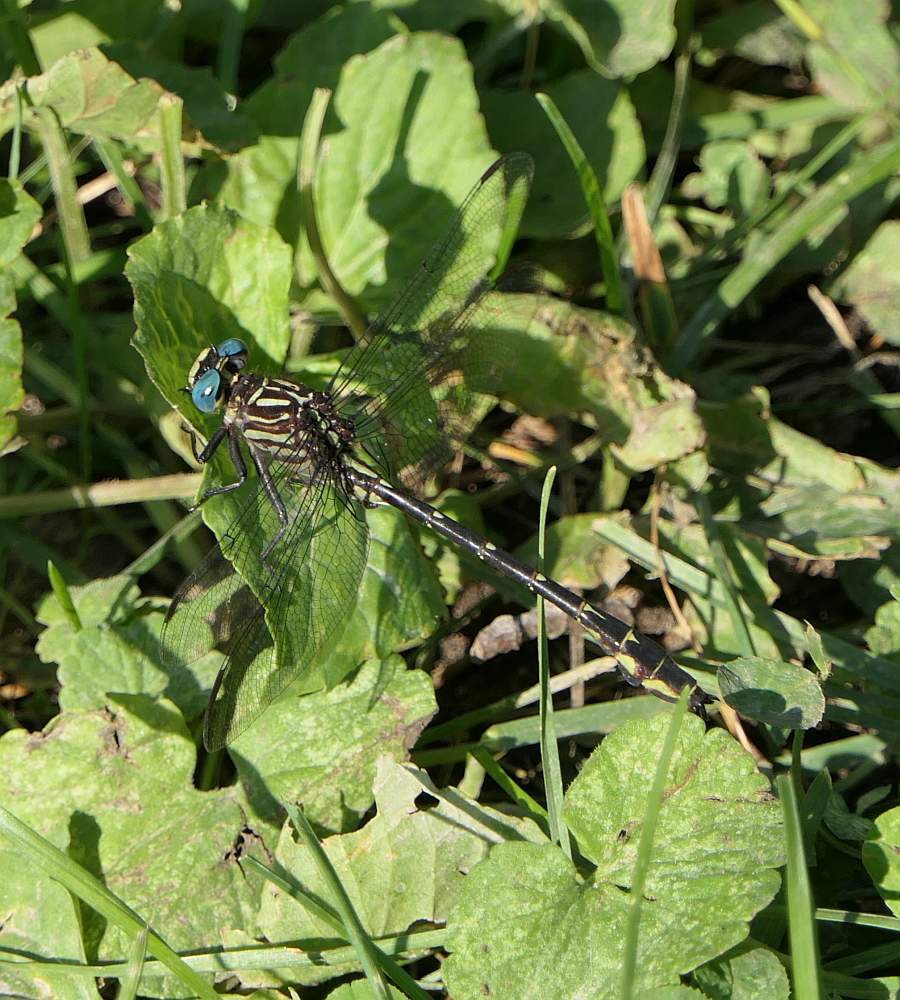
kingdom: Animalia
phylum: Arthropoda
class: Insecta
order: Odonata
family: Gomphidae
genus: Stylurus
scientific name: Stylurus notatus
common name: Elusive clubtail
